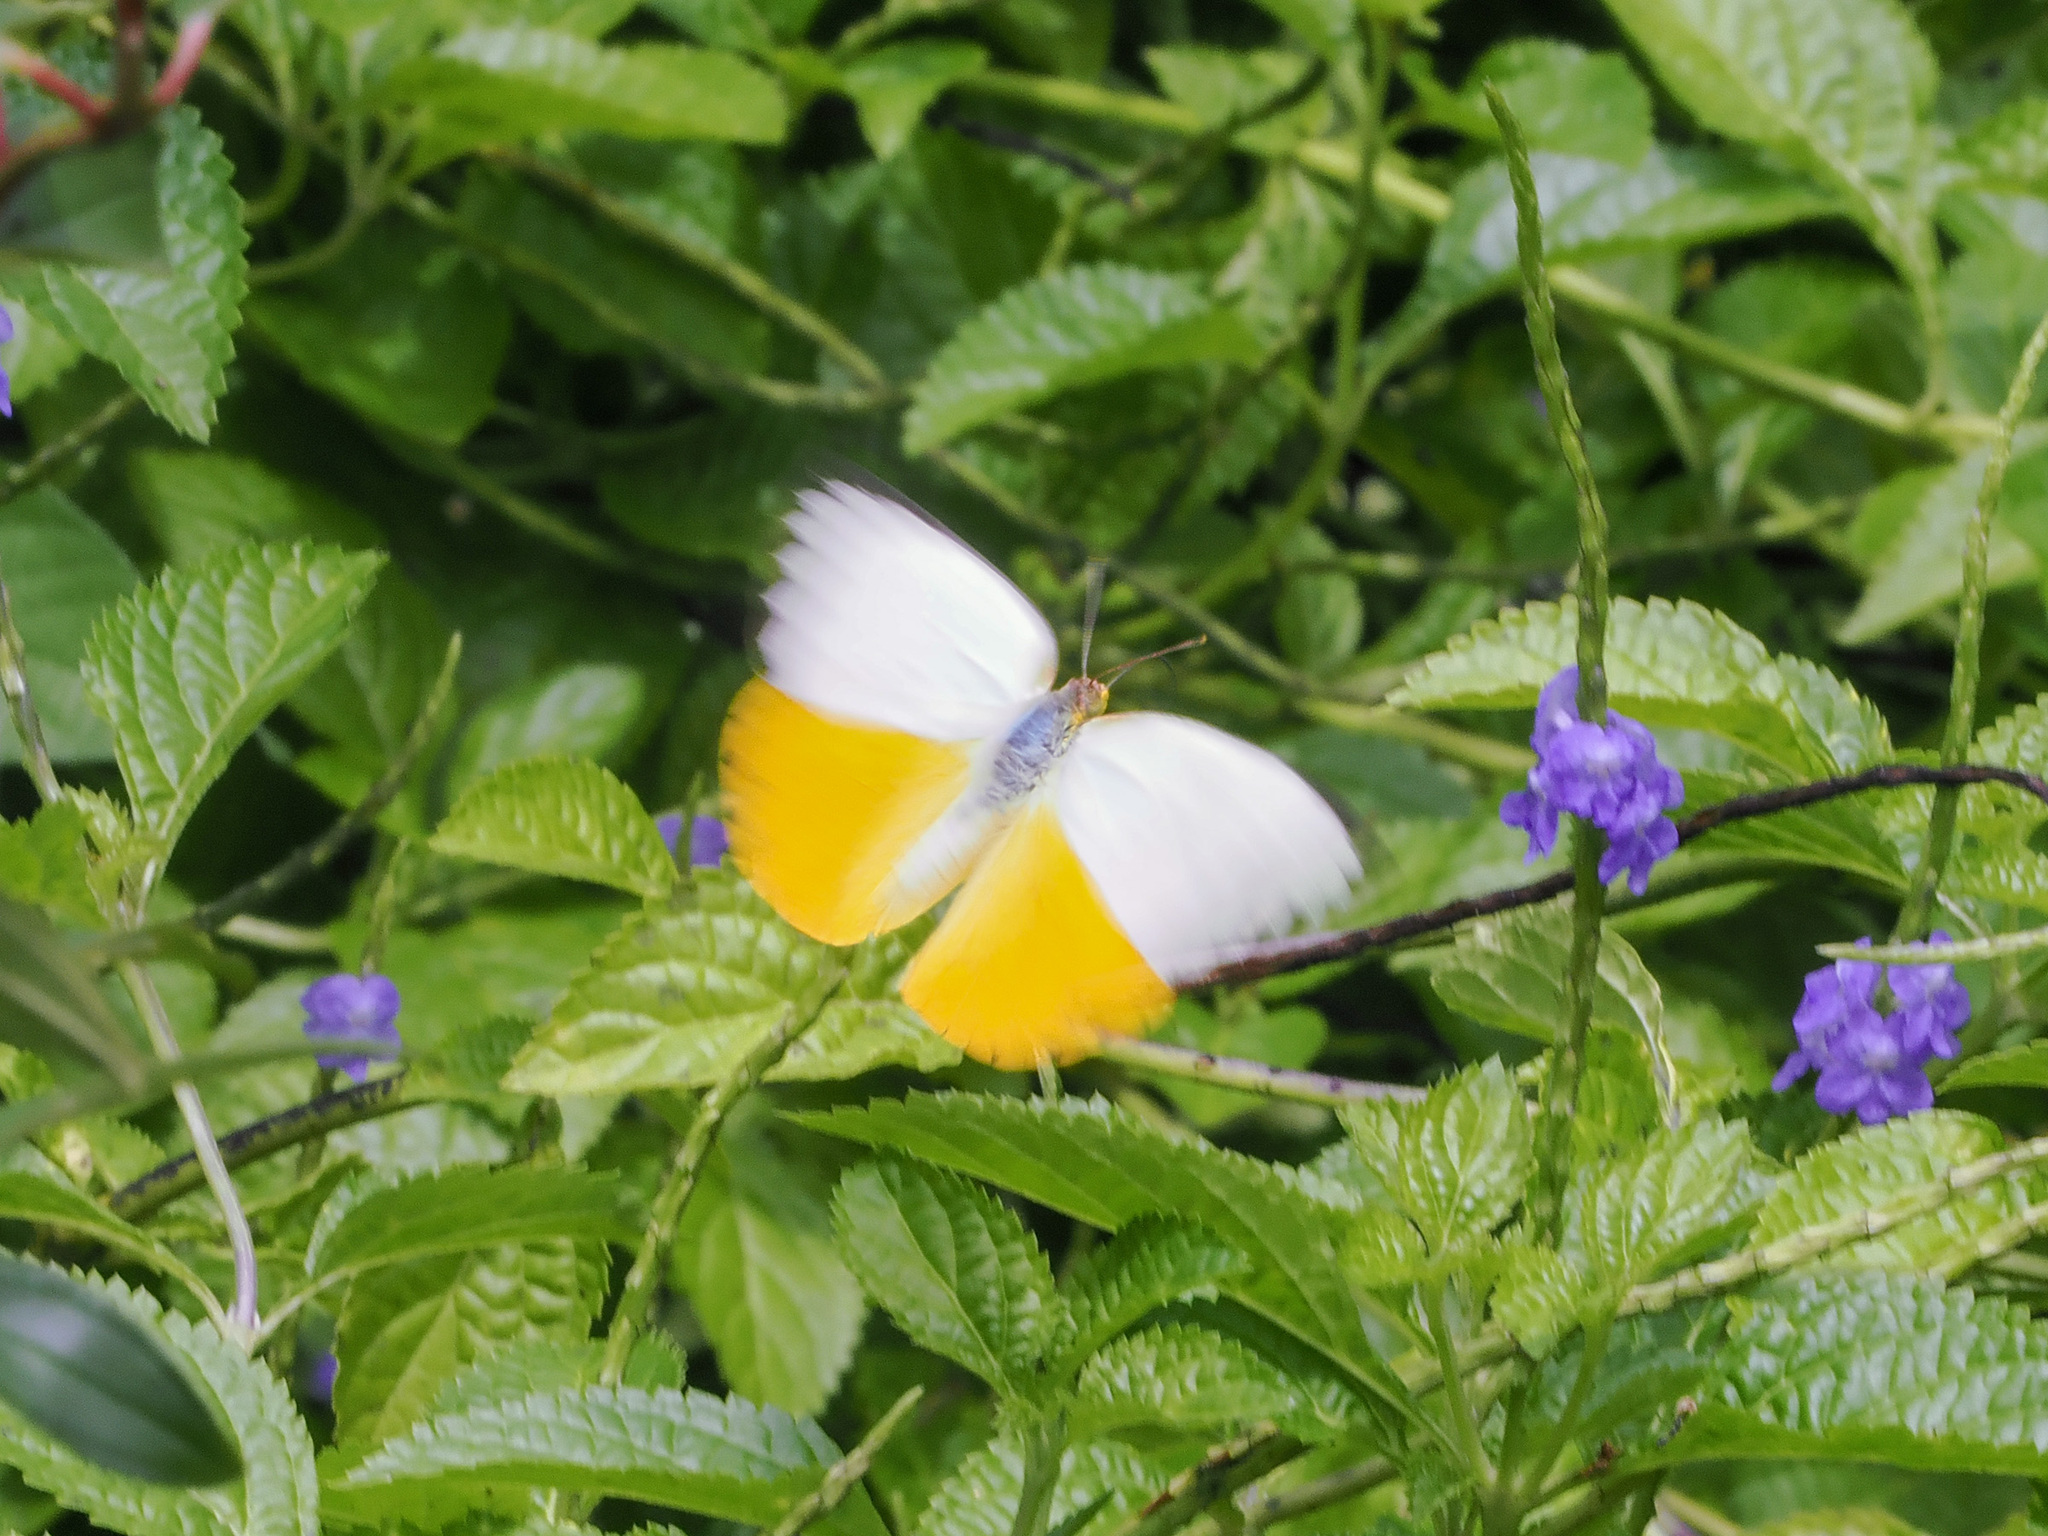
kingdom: Animalia
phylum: Arthropoda
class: Insecta
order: Lepidoptera
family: Pieridae
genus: Catopsilia
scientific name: Catopsilia scylla
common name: Orange emigrant
